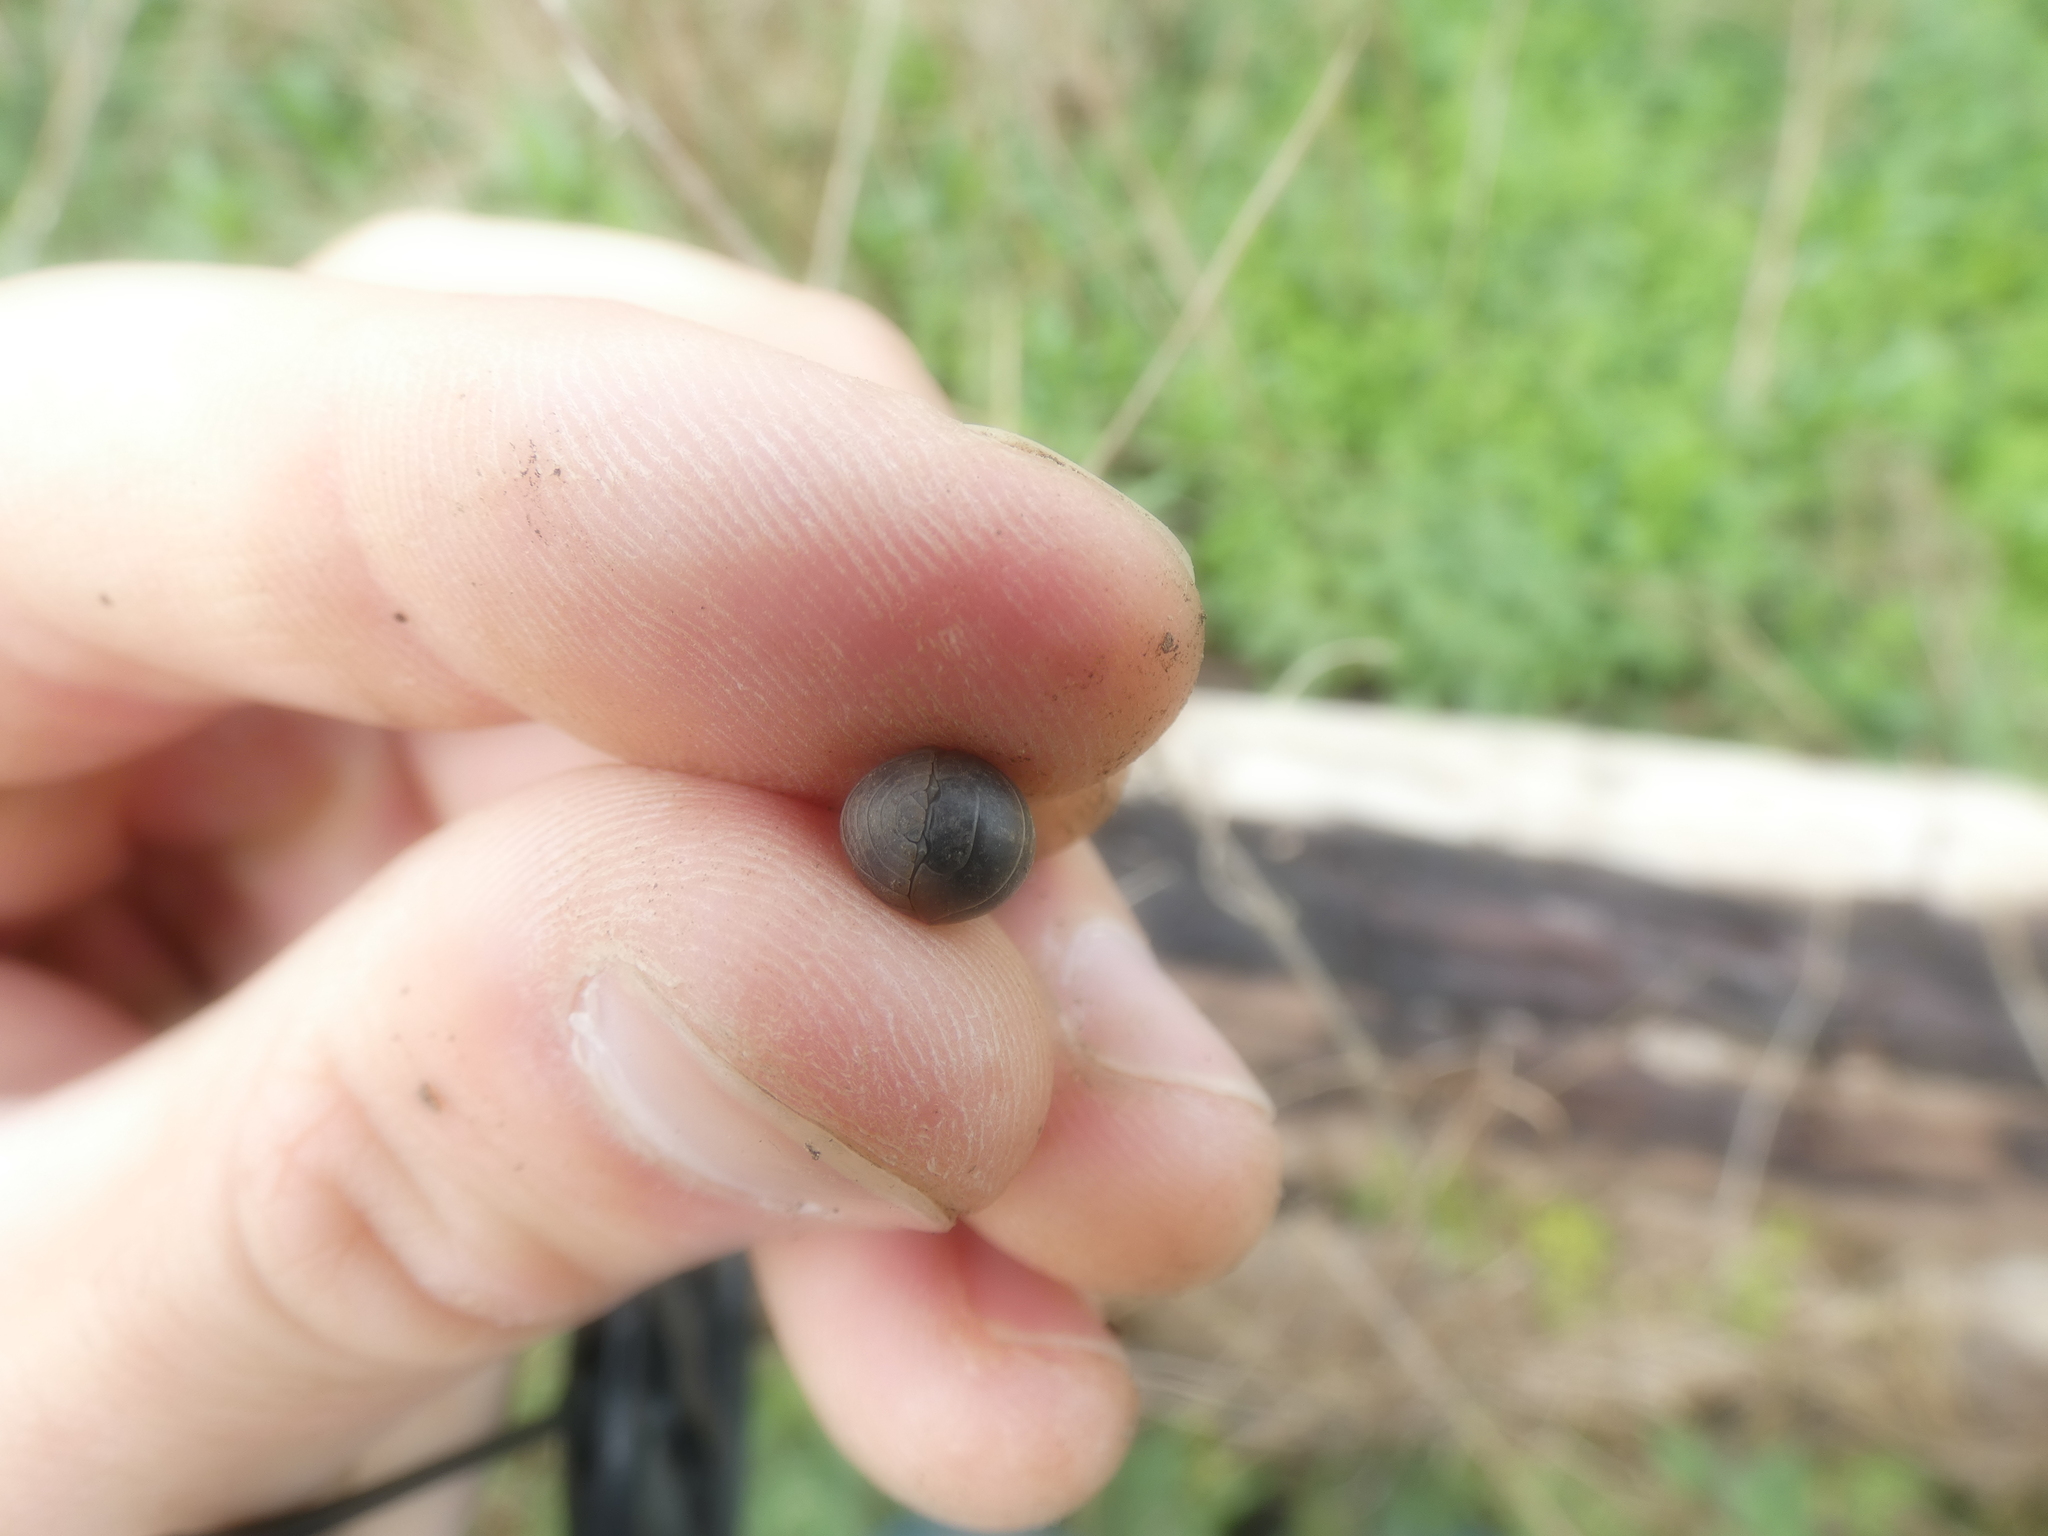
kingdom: Animalia
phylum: Arthropoda
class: Malacostraca
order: Isopoda
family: Armadillidiidae
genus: Armadillidium
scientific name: Armadillidium vulgare
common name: Common pill woodlouse
